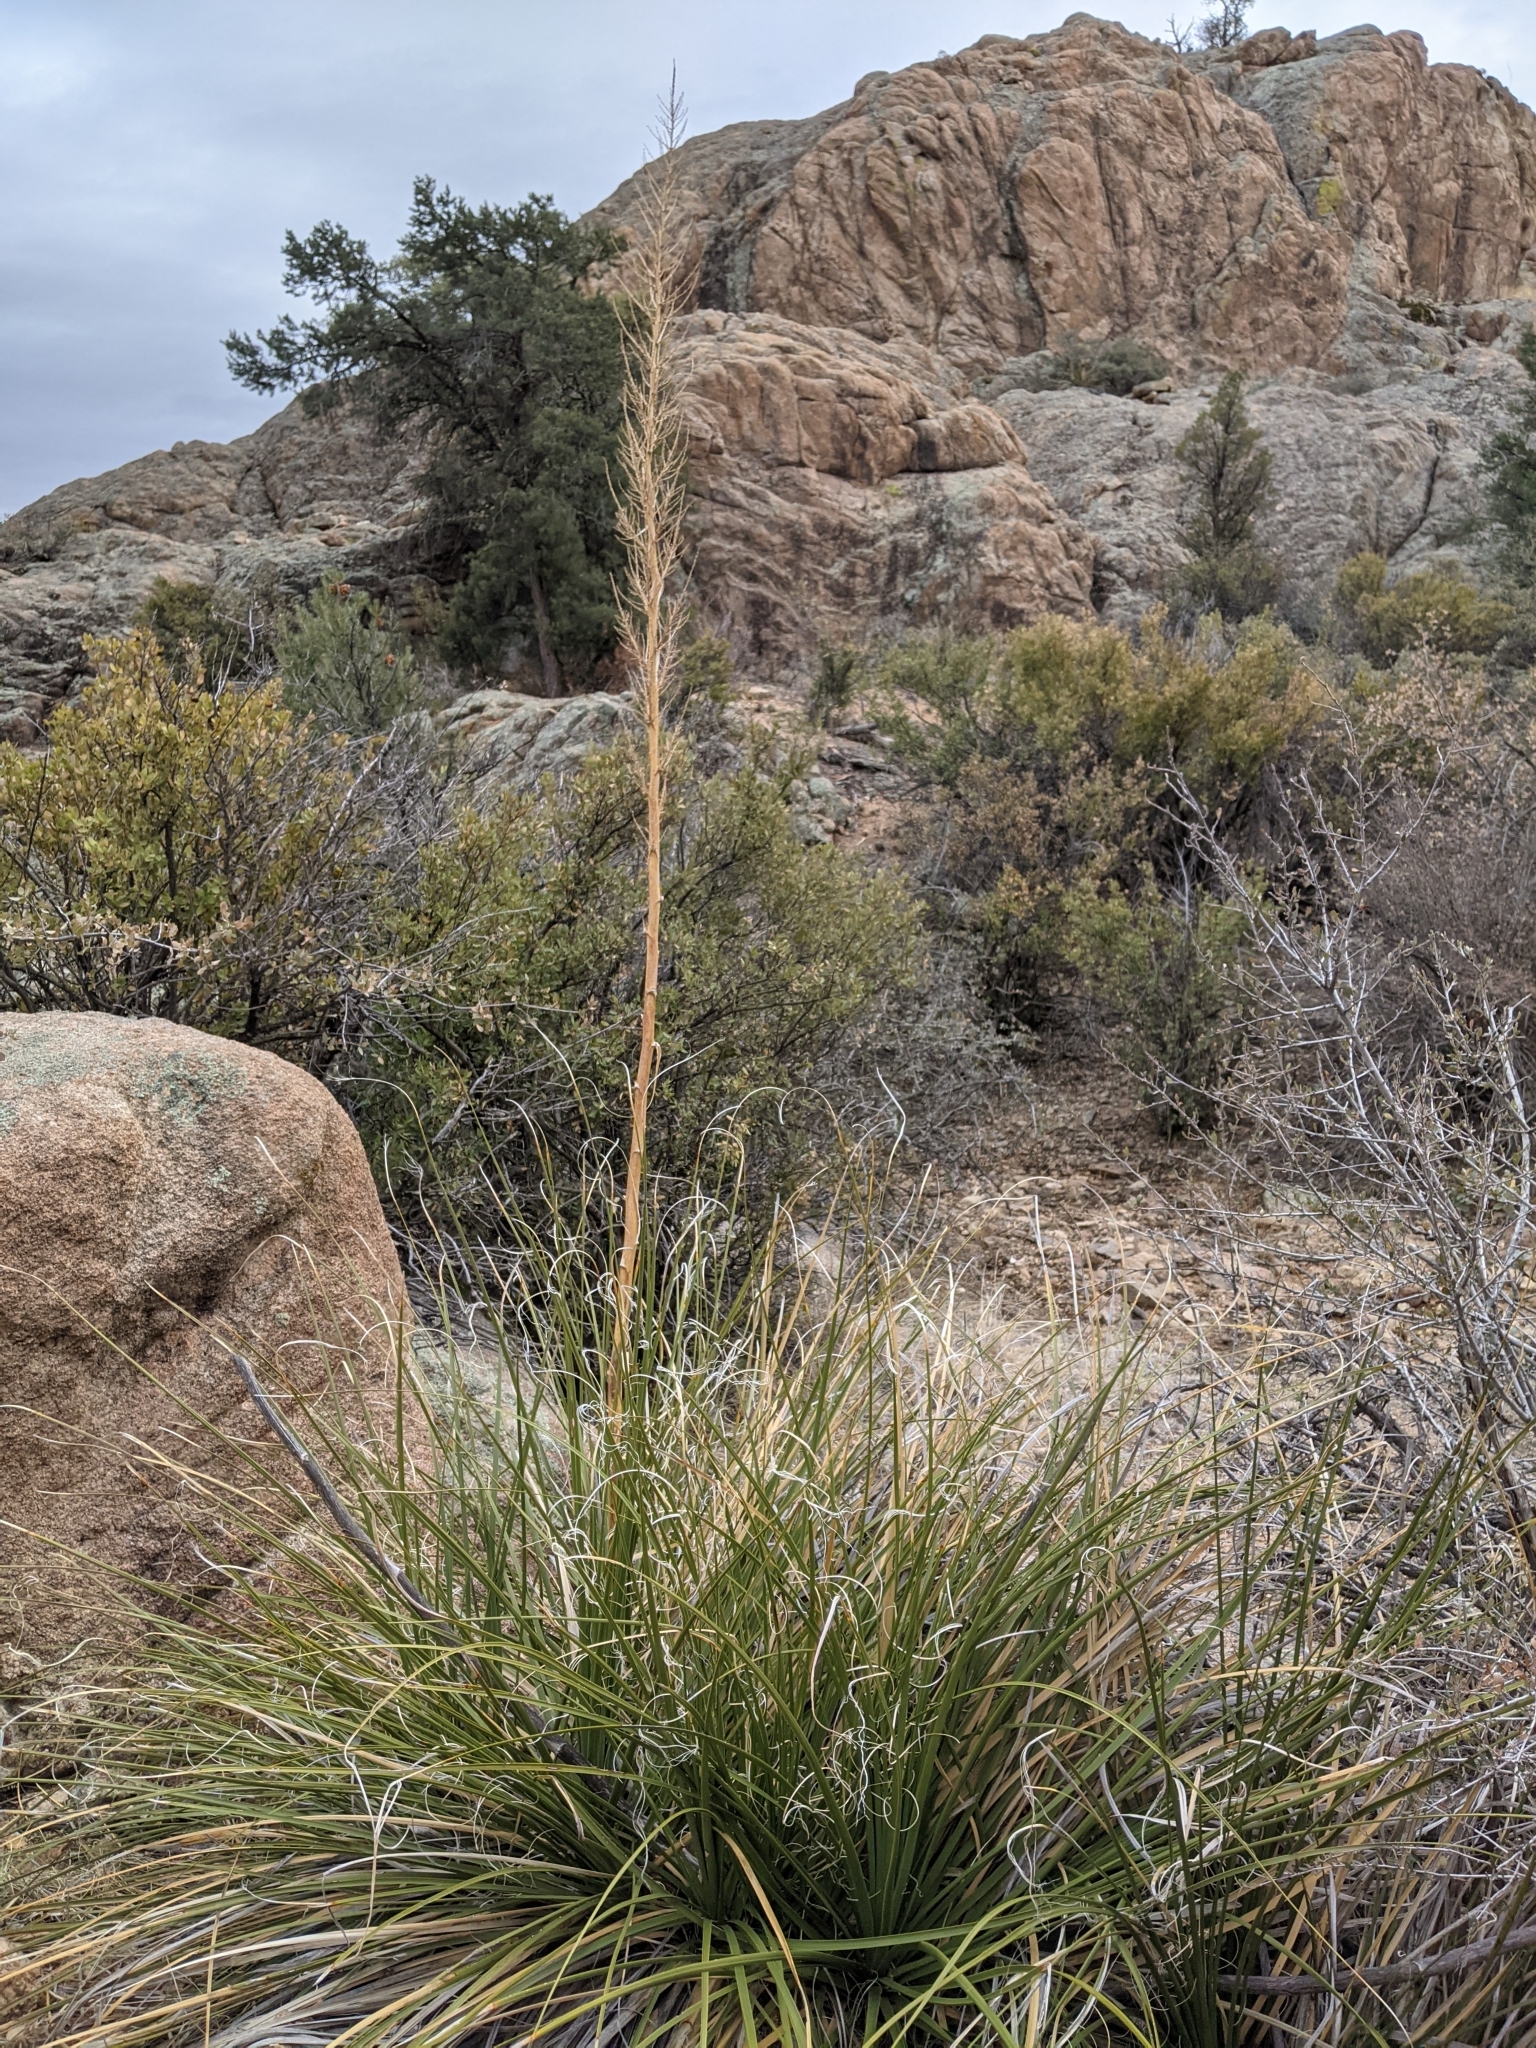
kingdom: Plantae
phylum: Tracheophyta
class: Liliopsida
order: Asparagales
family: Asparagaceae
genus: Nolina
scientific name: Nolina microcarpa
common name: Bear-grass
